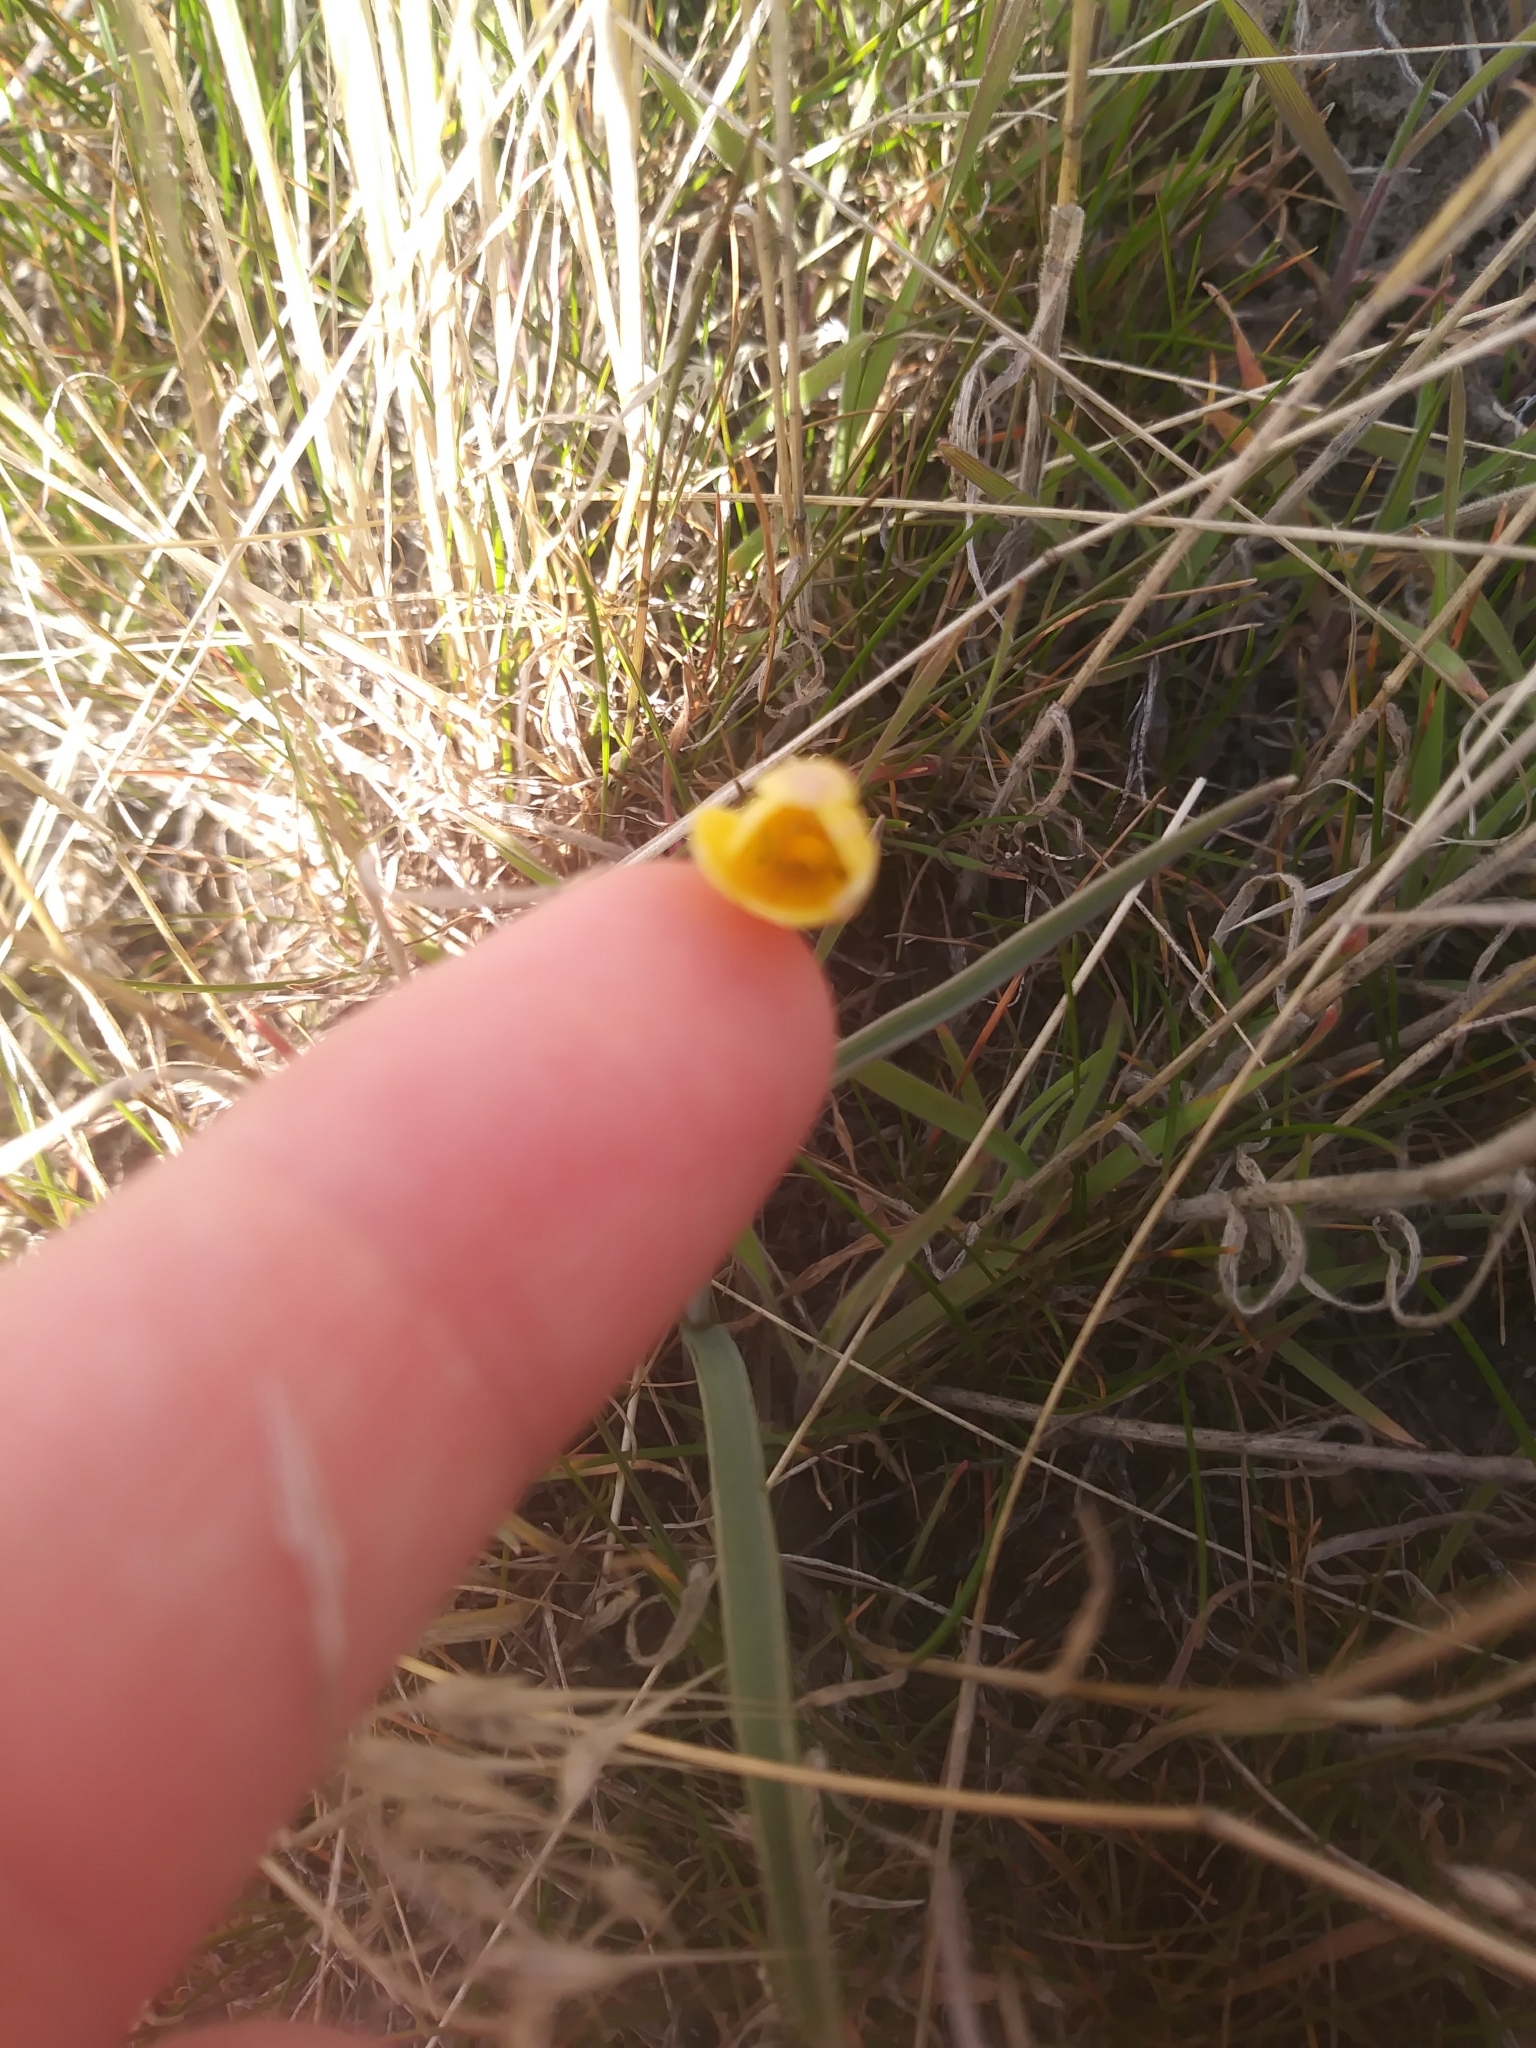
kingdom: Plantae
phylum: Tracheophyta
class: Liliopsida
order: Liliales
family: Liliaceae
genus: Fritillaria
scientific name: Fritillaria pudica
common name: Yellow fritillary
